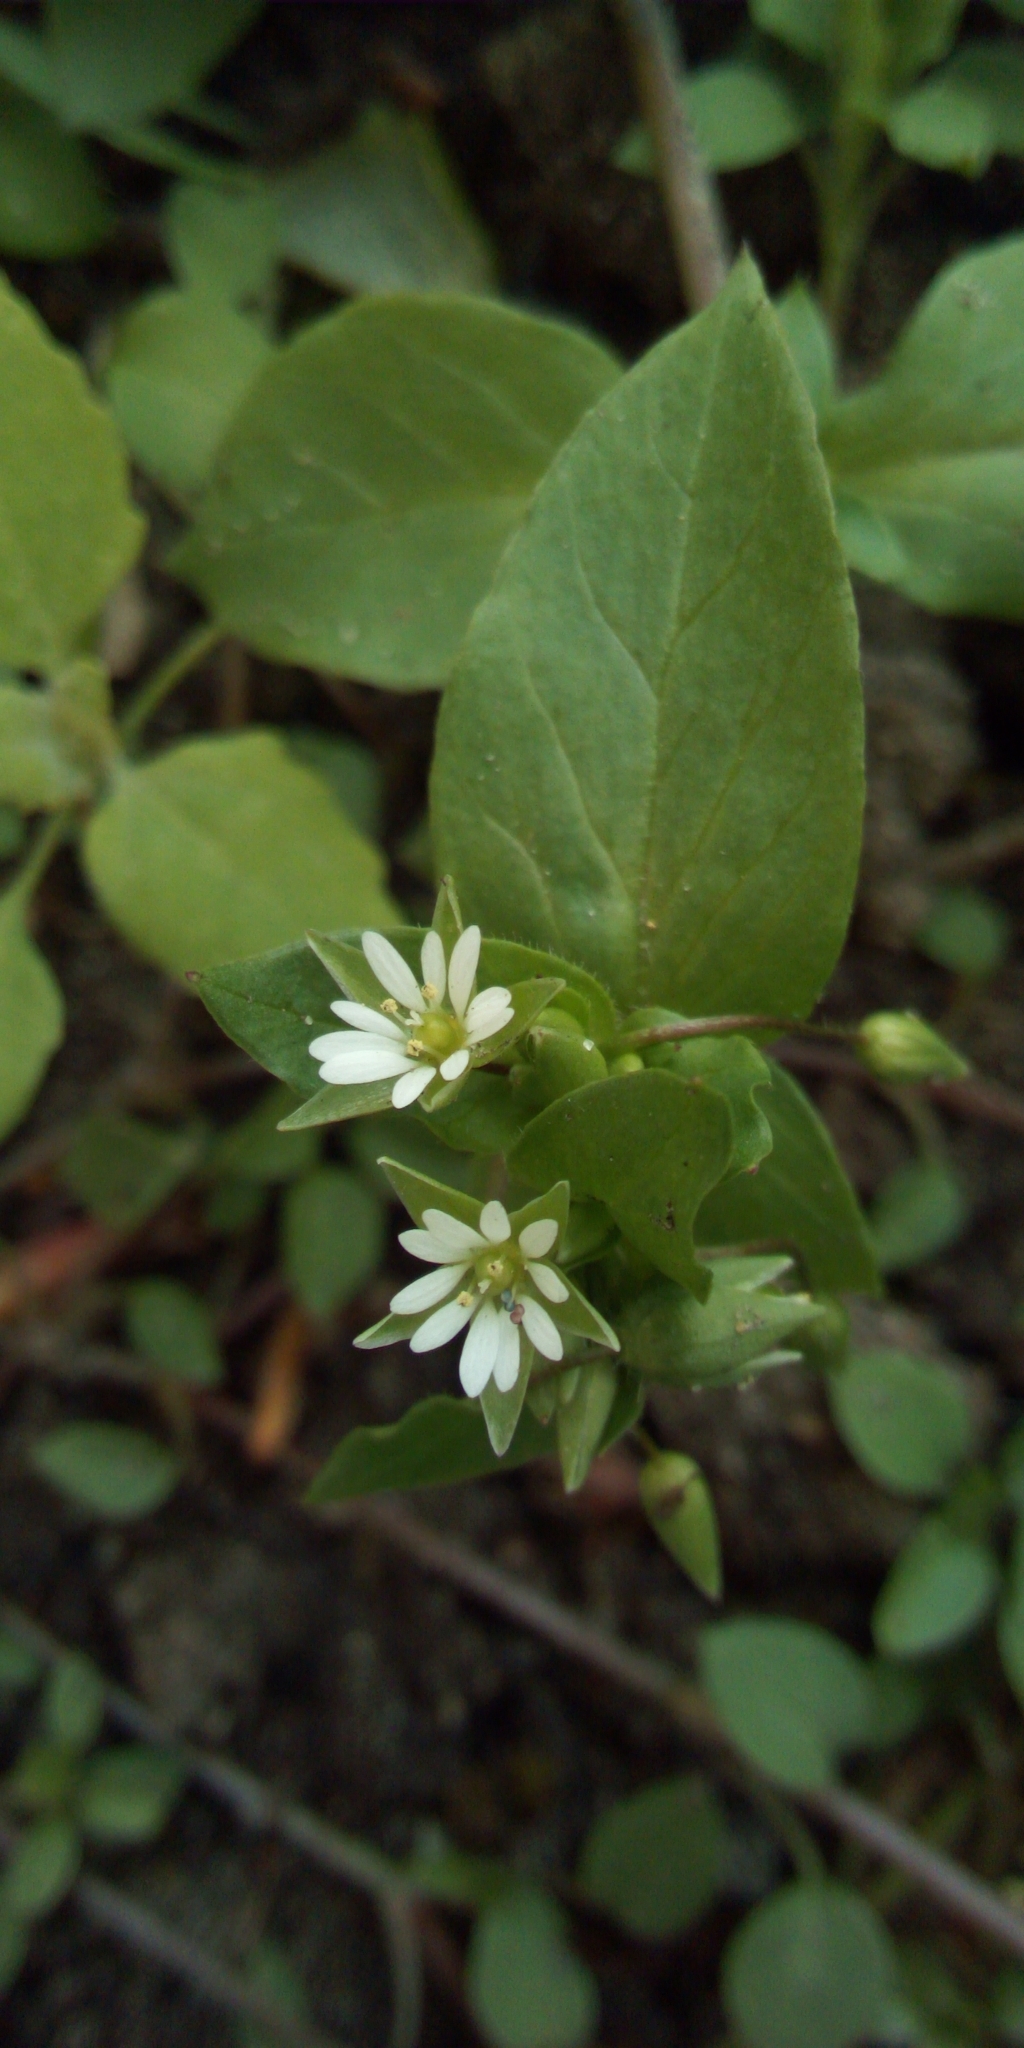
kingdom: Plantae
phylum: Tracheophyta
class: Magnoliopsida
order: Caryophyllales
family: Caryophyllaceae
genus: Stellaria
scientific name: Stellaria media
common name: Common chickweed
